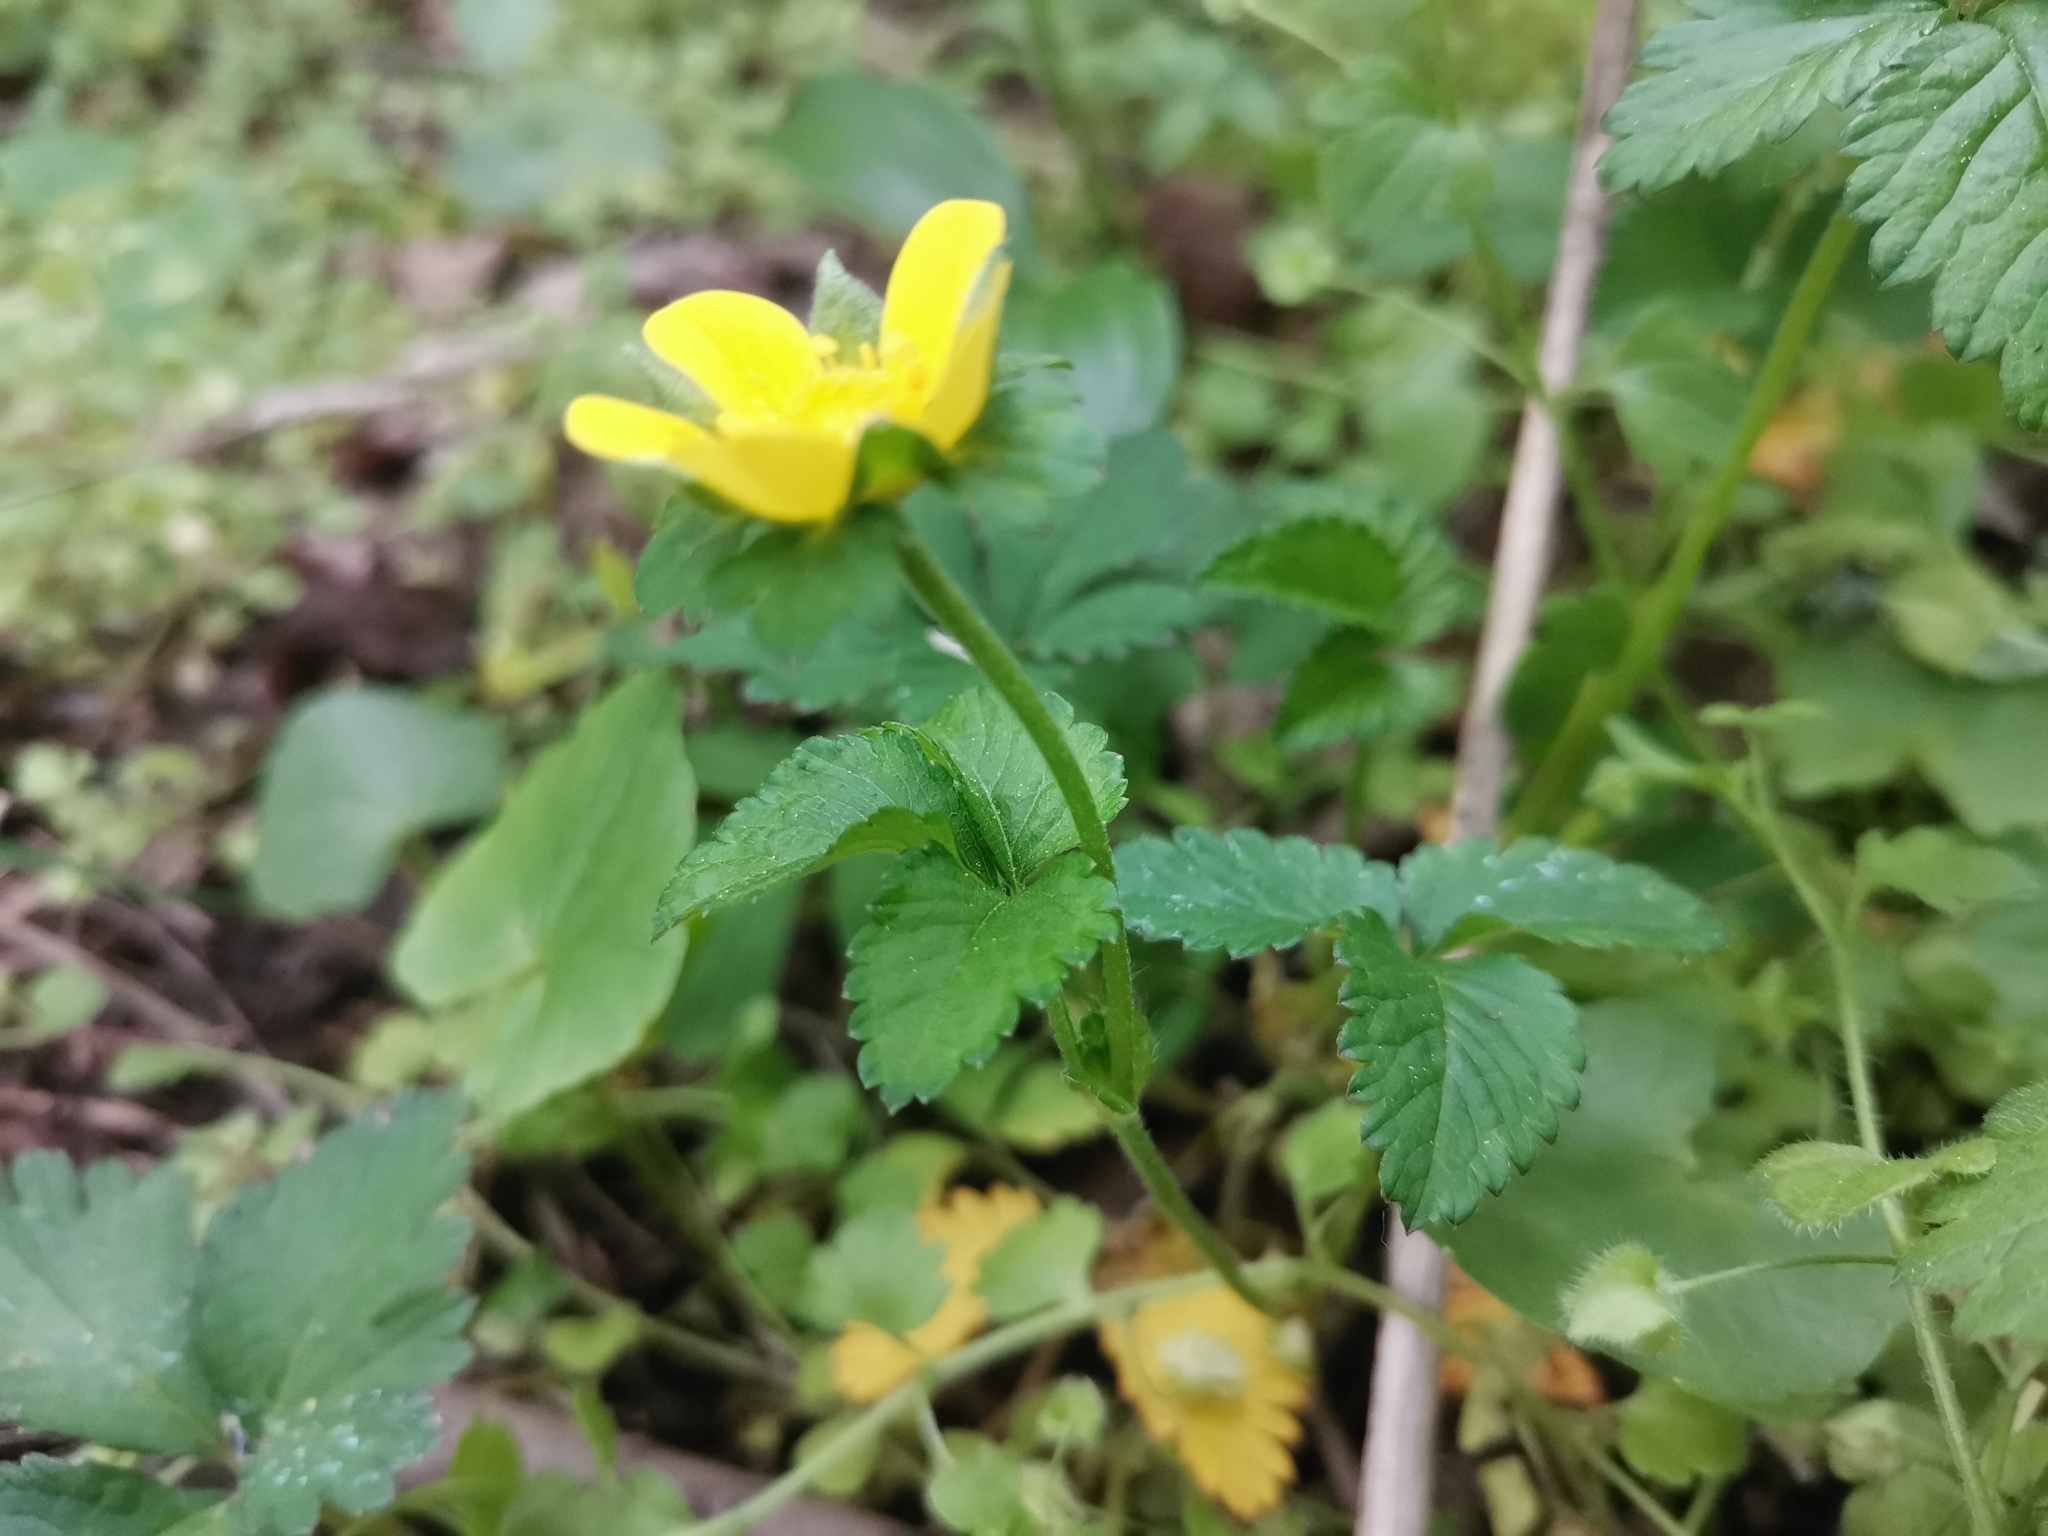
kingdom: Plantae
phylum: Tracheophyta
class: Magnoliopsida
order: Rosales
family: Rosaceae
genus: Potentilla
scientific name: Potentilla indica
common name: Yellow-flowered strawberry
